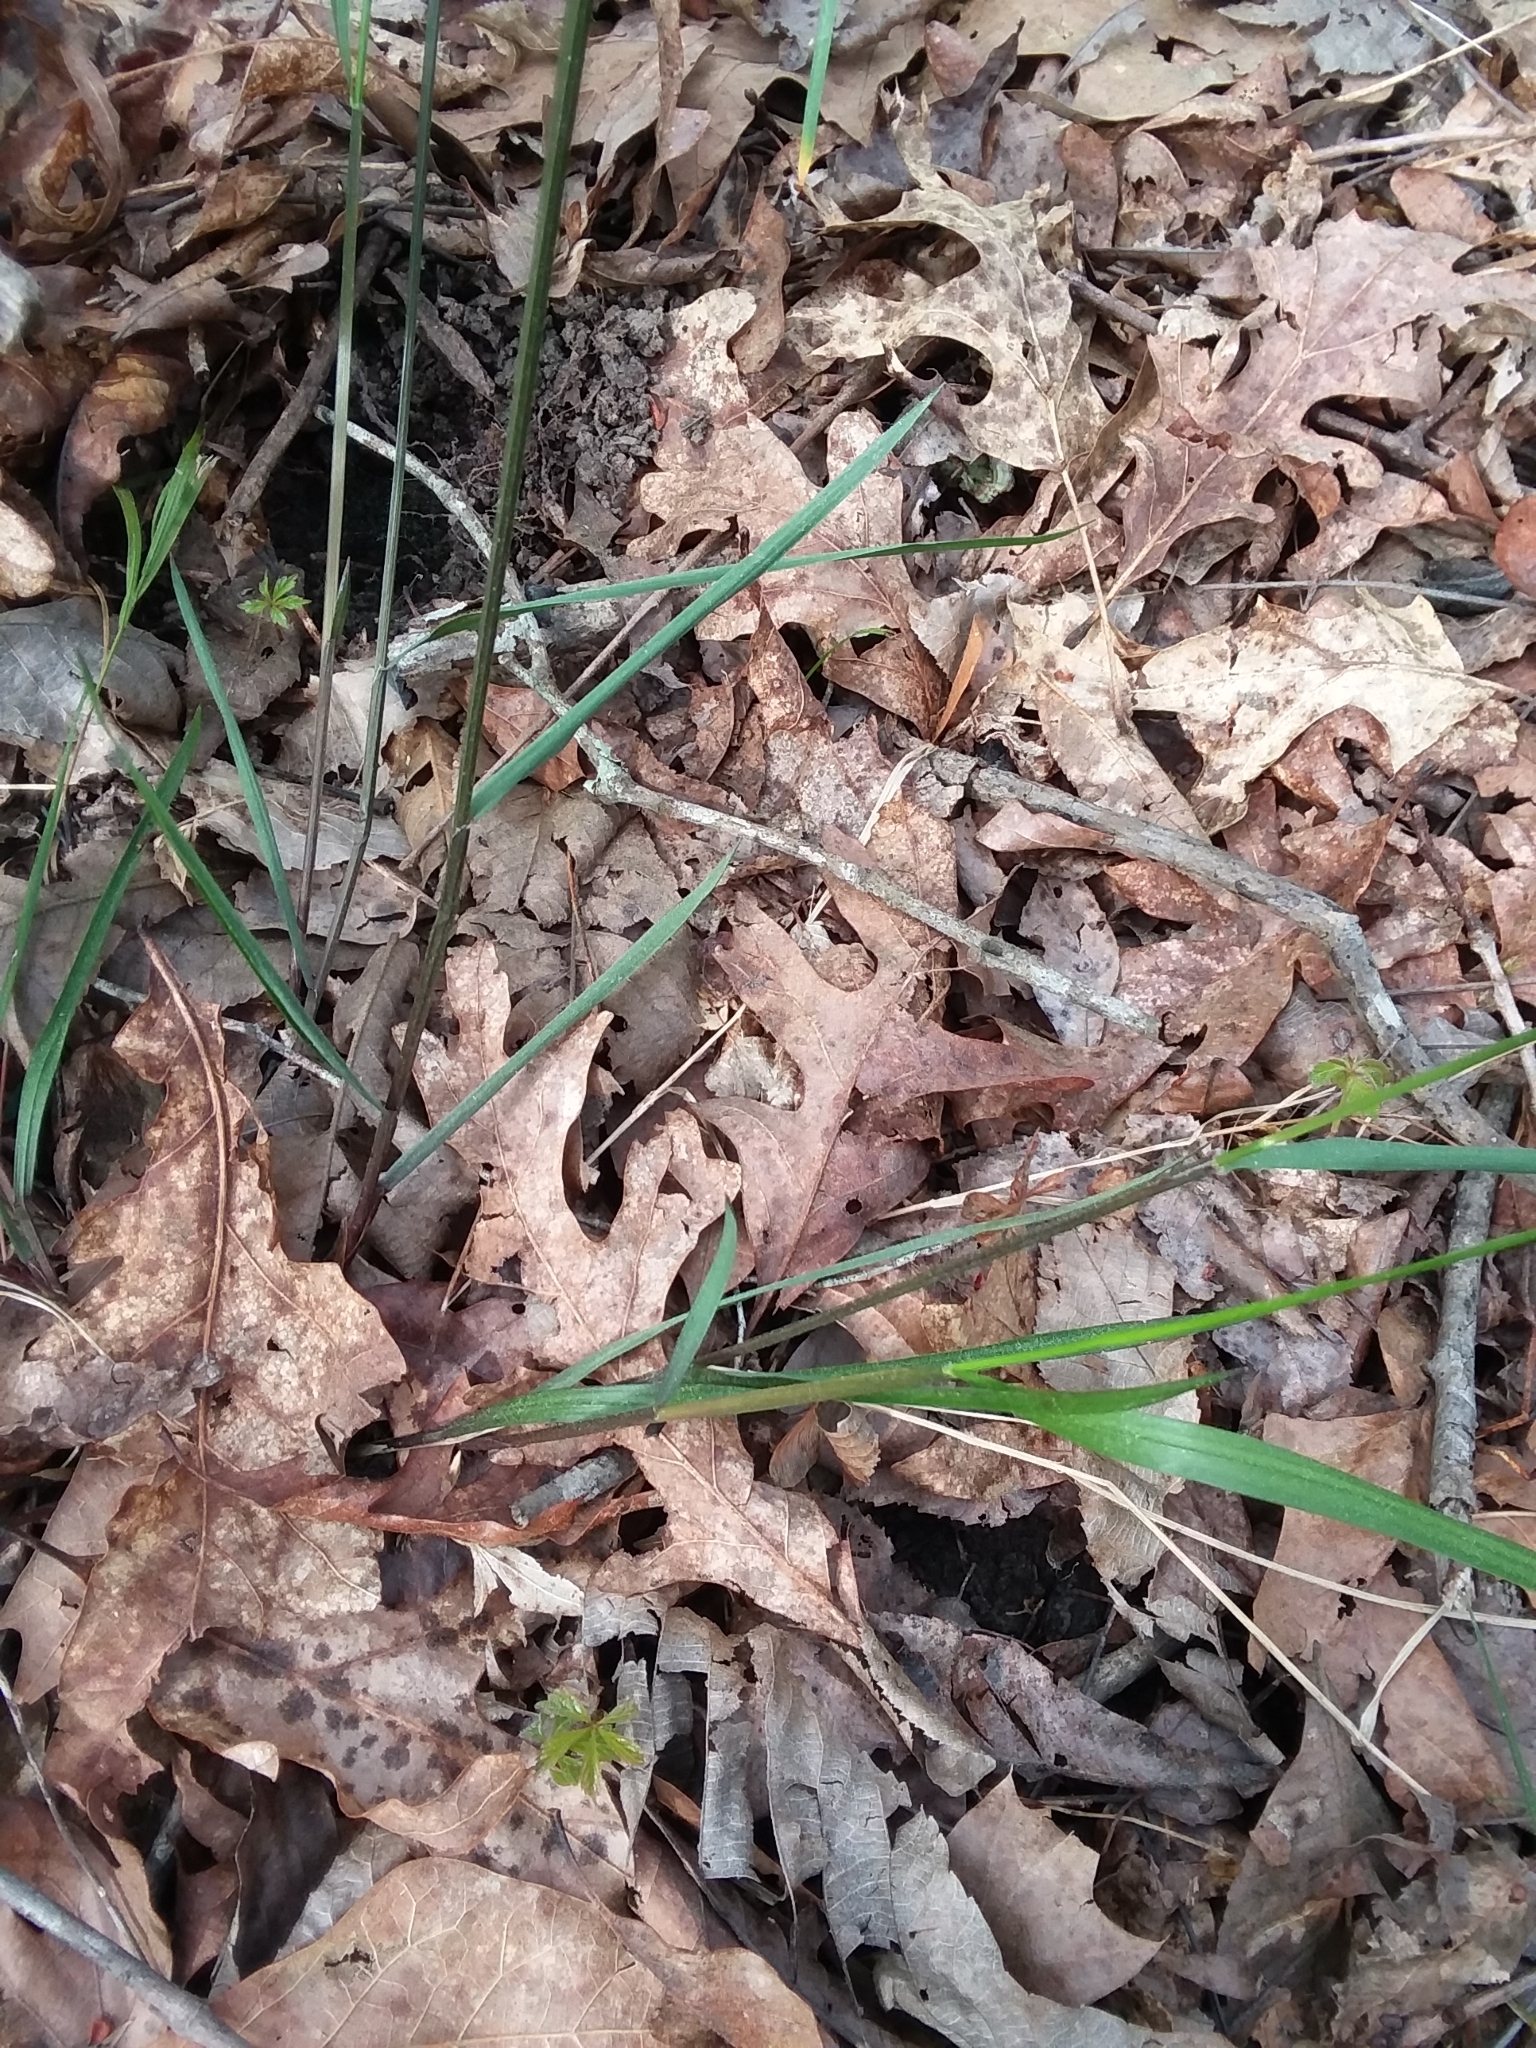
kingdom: Plantae
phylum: Tracheophyta
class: Liliopsida
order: Poales
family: Poaceae
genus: Melica
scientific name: Melica mutica
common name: Two-flower melic
